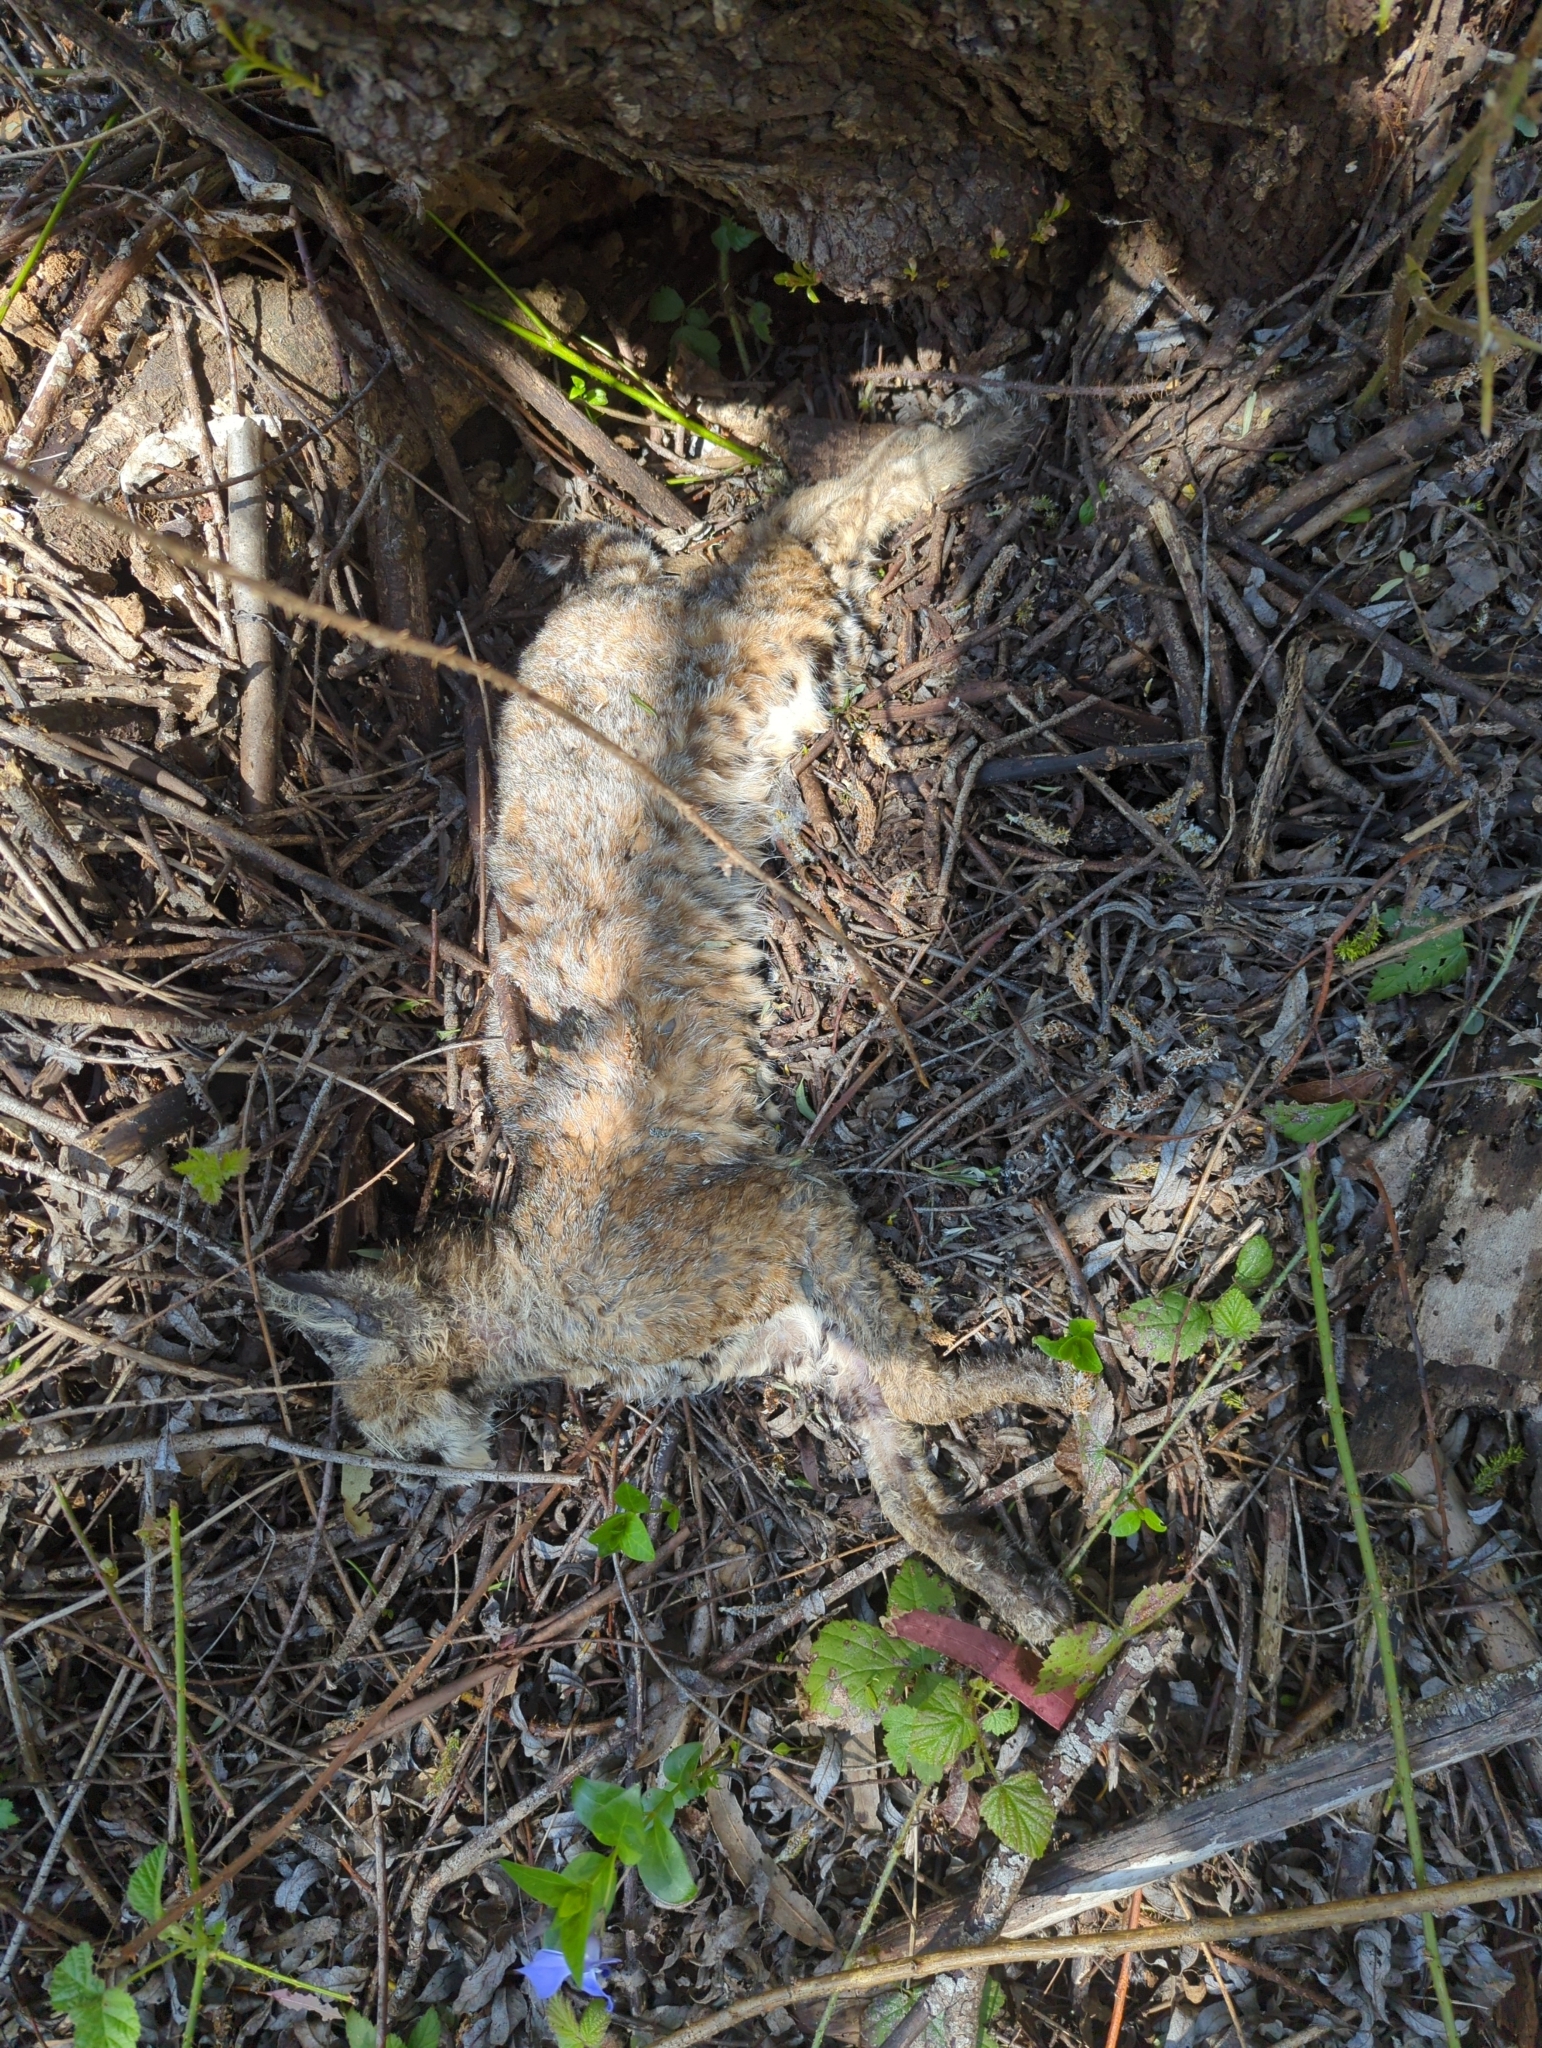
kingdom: Animalia
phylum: Chordata
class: Mammalia
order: Carnivora
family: Felidae
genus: Lynx
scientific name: Lynx rufus
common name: Bobcat
